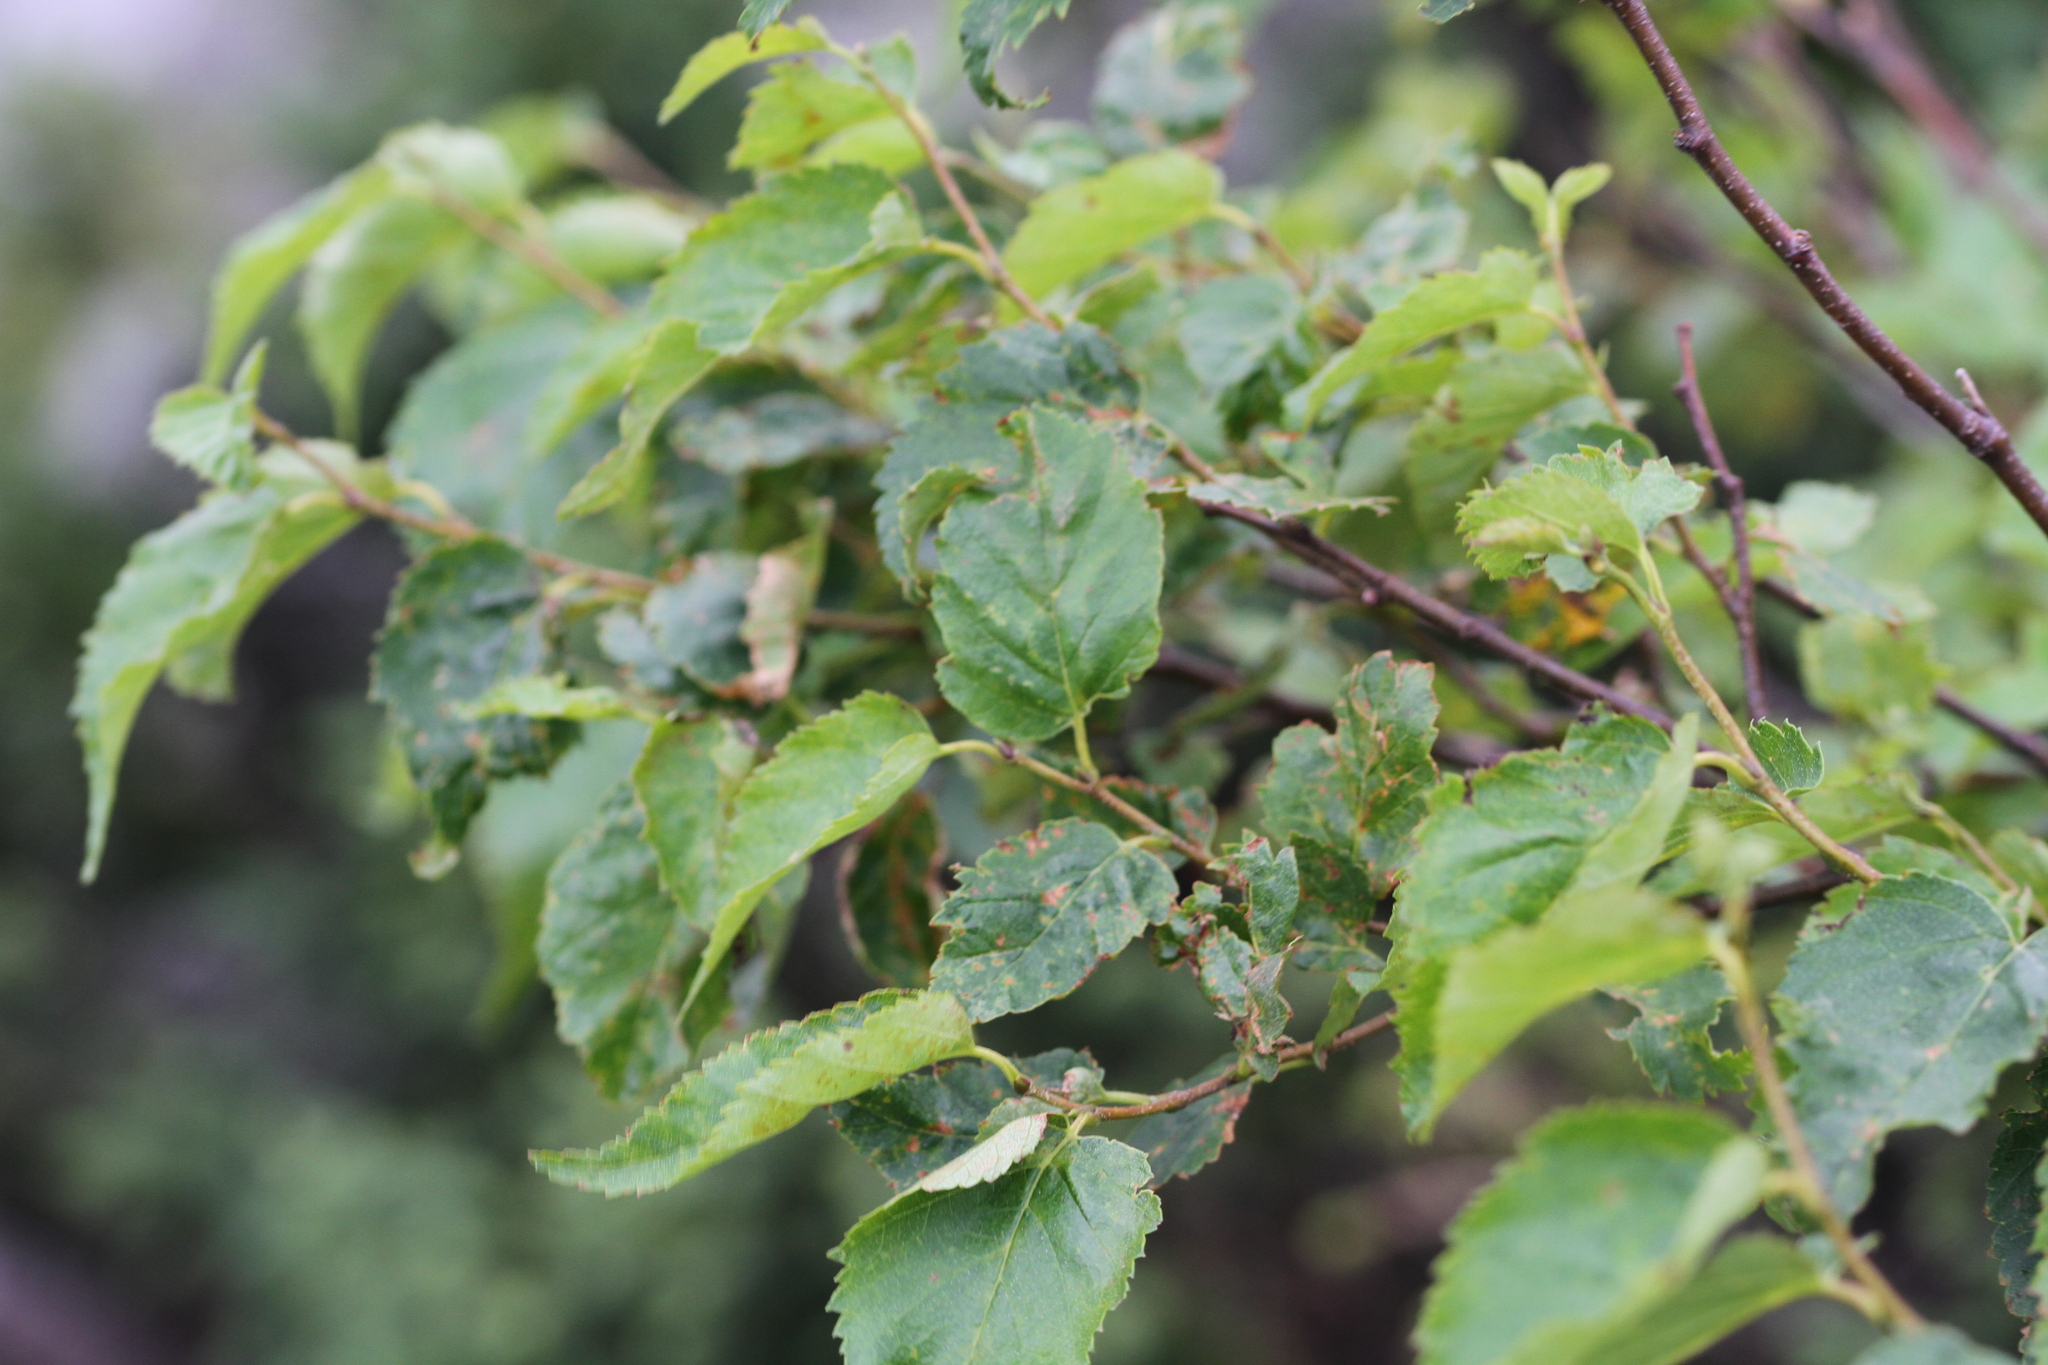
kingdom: Plantae
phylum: Tracheophyta
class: Magnoliopsida
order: Fagales
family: Betulaceae
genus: Betula
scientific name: Betula cordifolia
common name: Mountain white birch
